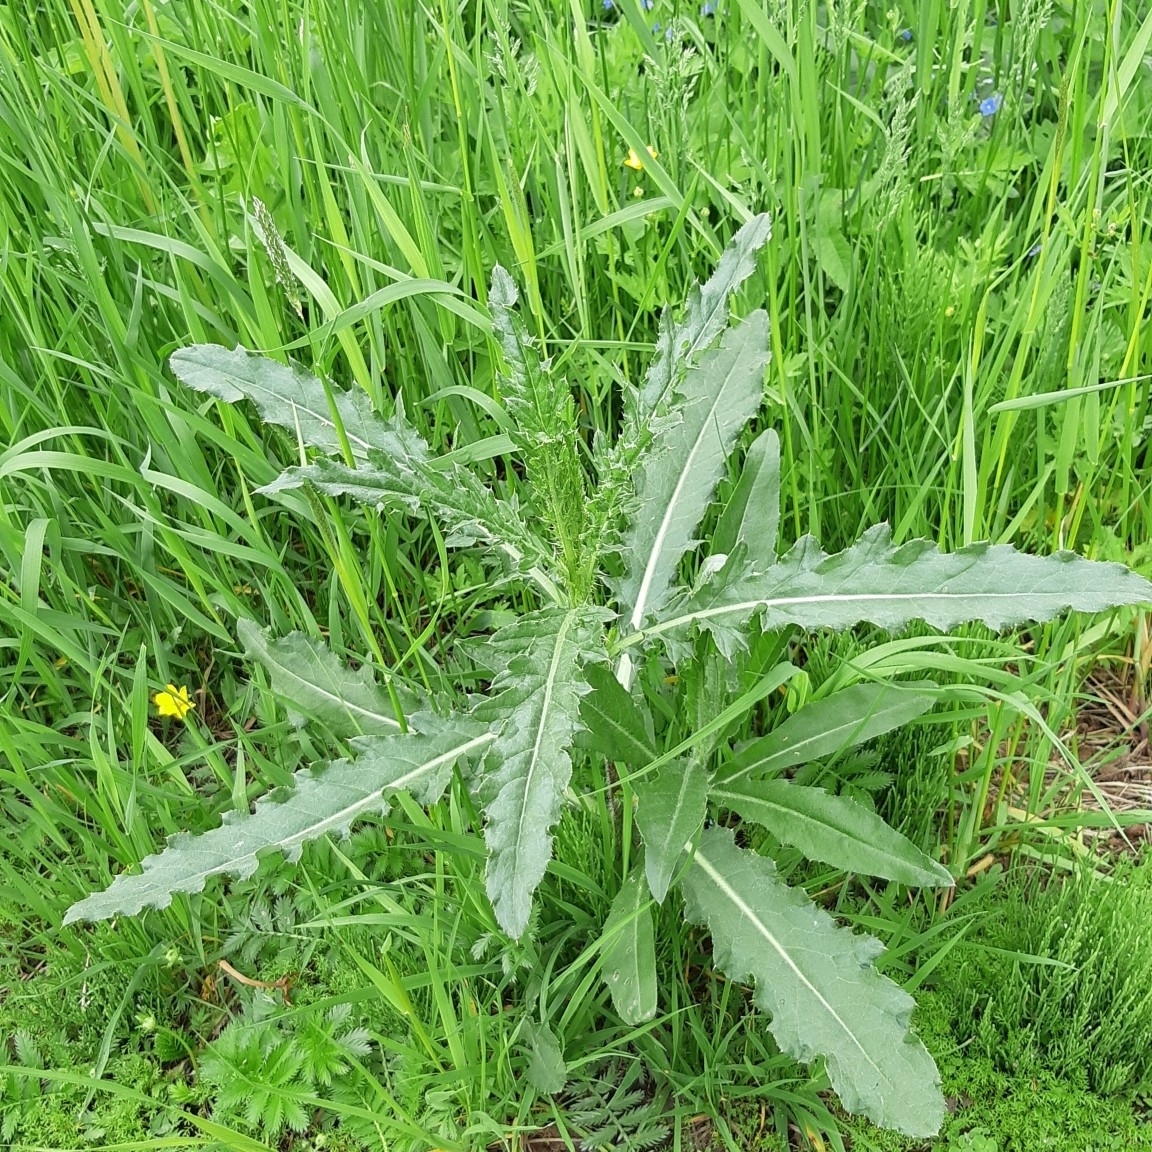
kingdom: Plantae
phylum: Tracheophyta
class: Magnoliopsida
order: Asterales
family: Asteraceae
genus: Cirsium
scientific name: Cirsium arvense
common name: Creeping thistle
